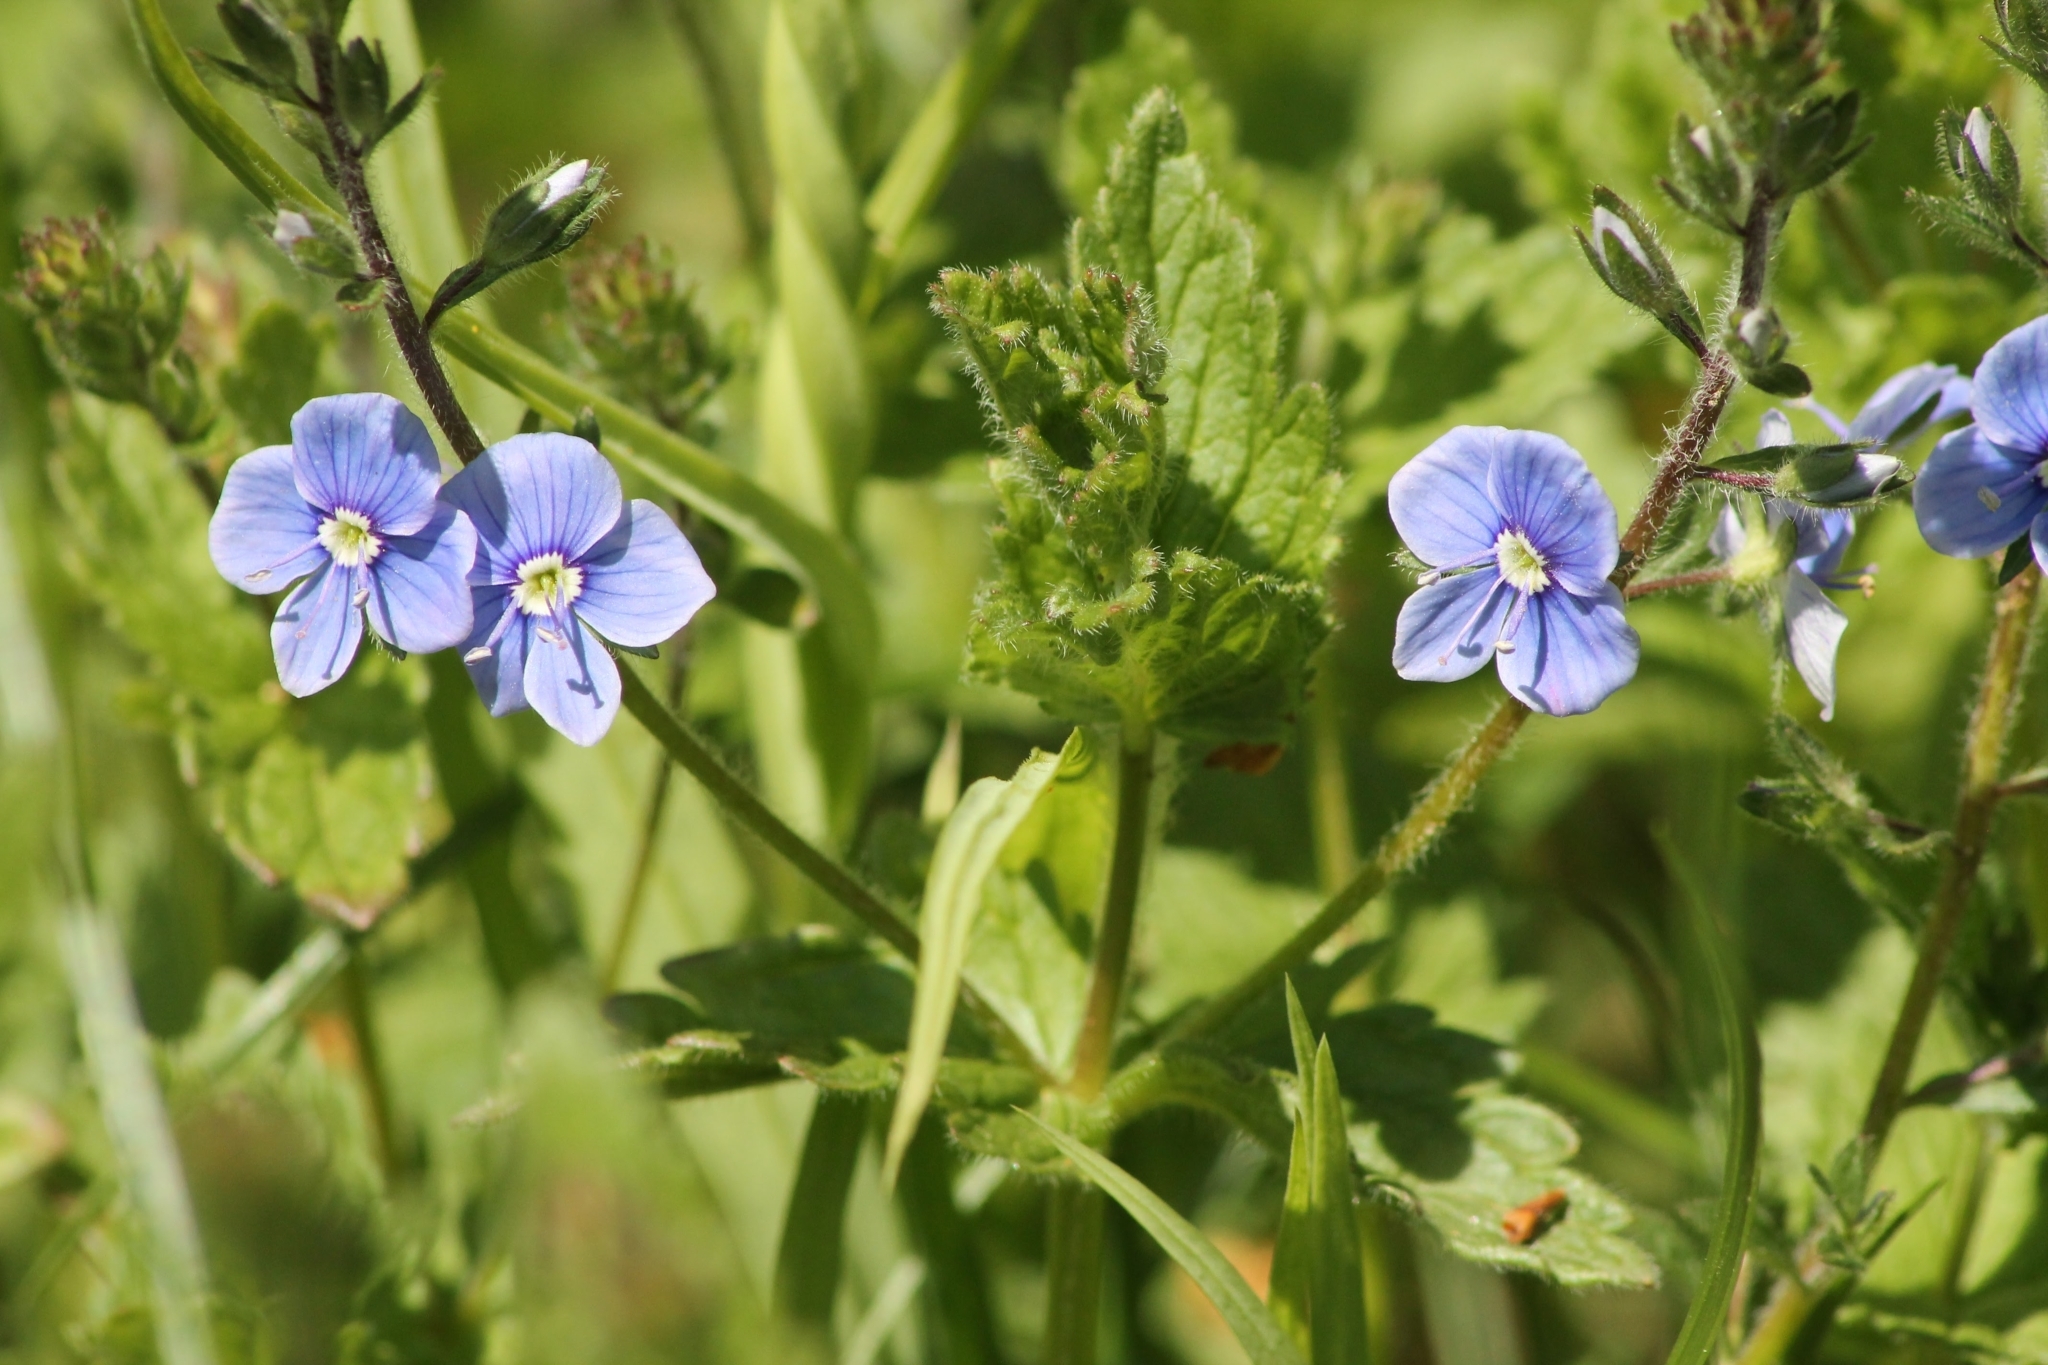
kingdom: Plantae
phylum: Tracheophyta
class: Magnoliopsida
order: Lamiales
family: Plantaginaceae
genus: Veronica
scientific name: Veronica chamaedrys
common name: Germander speedwell
